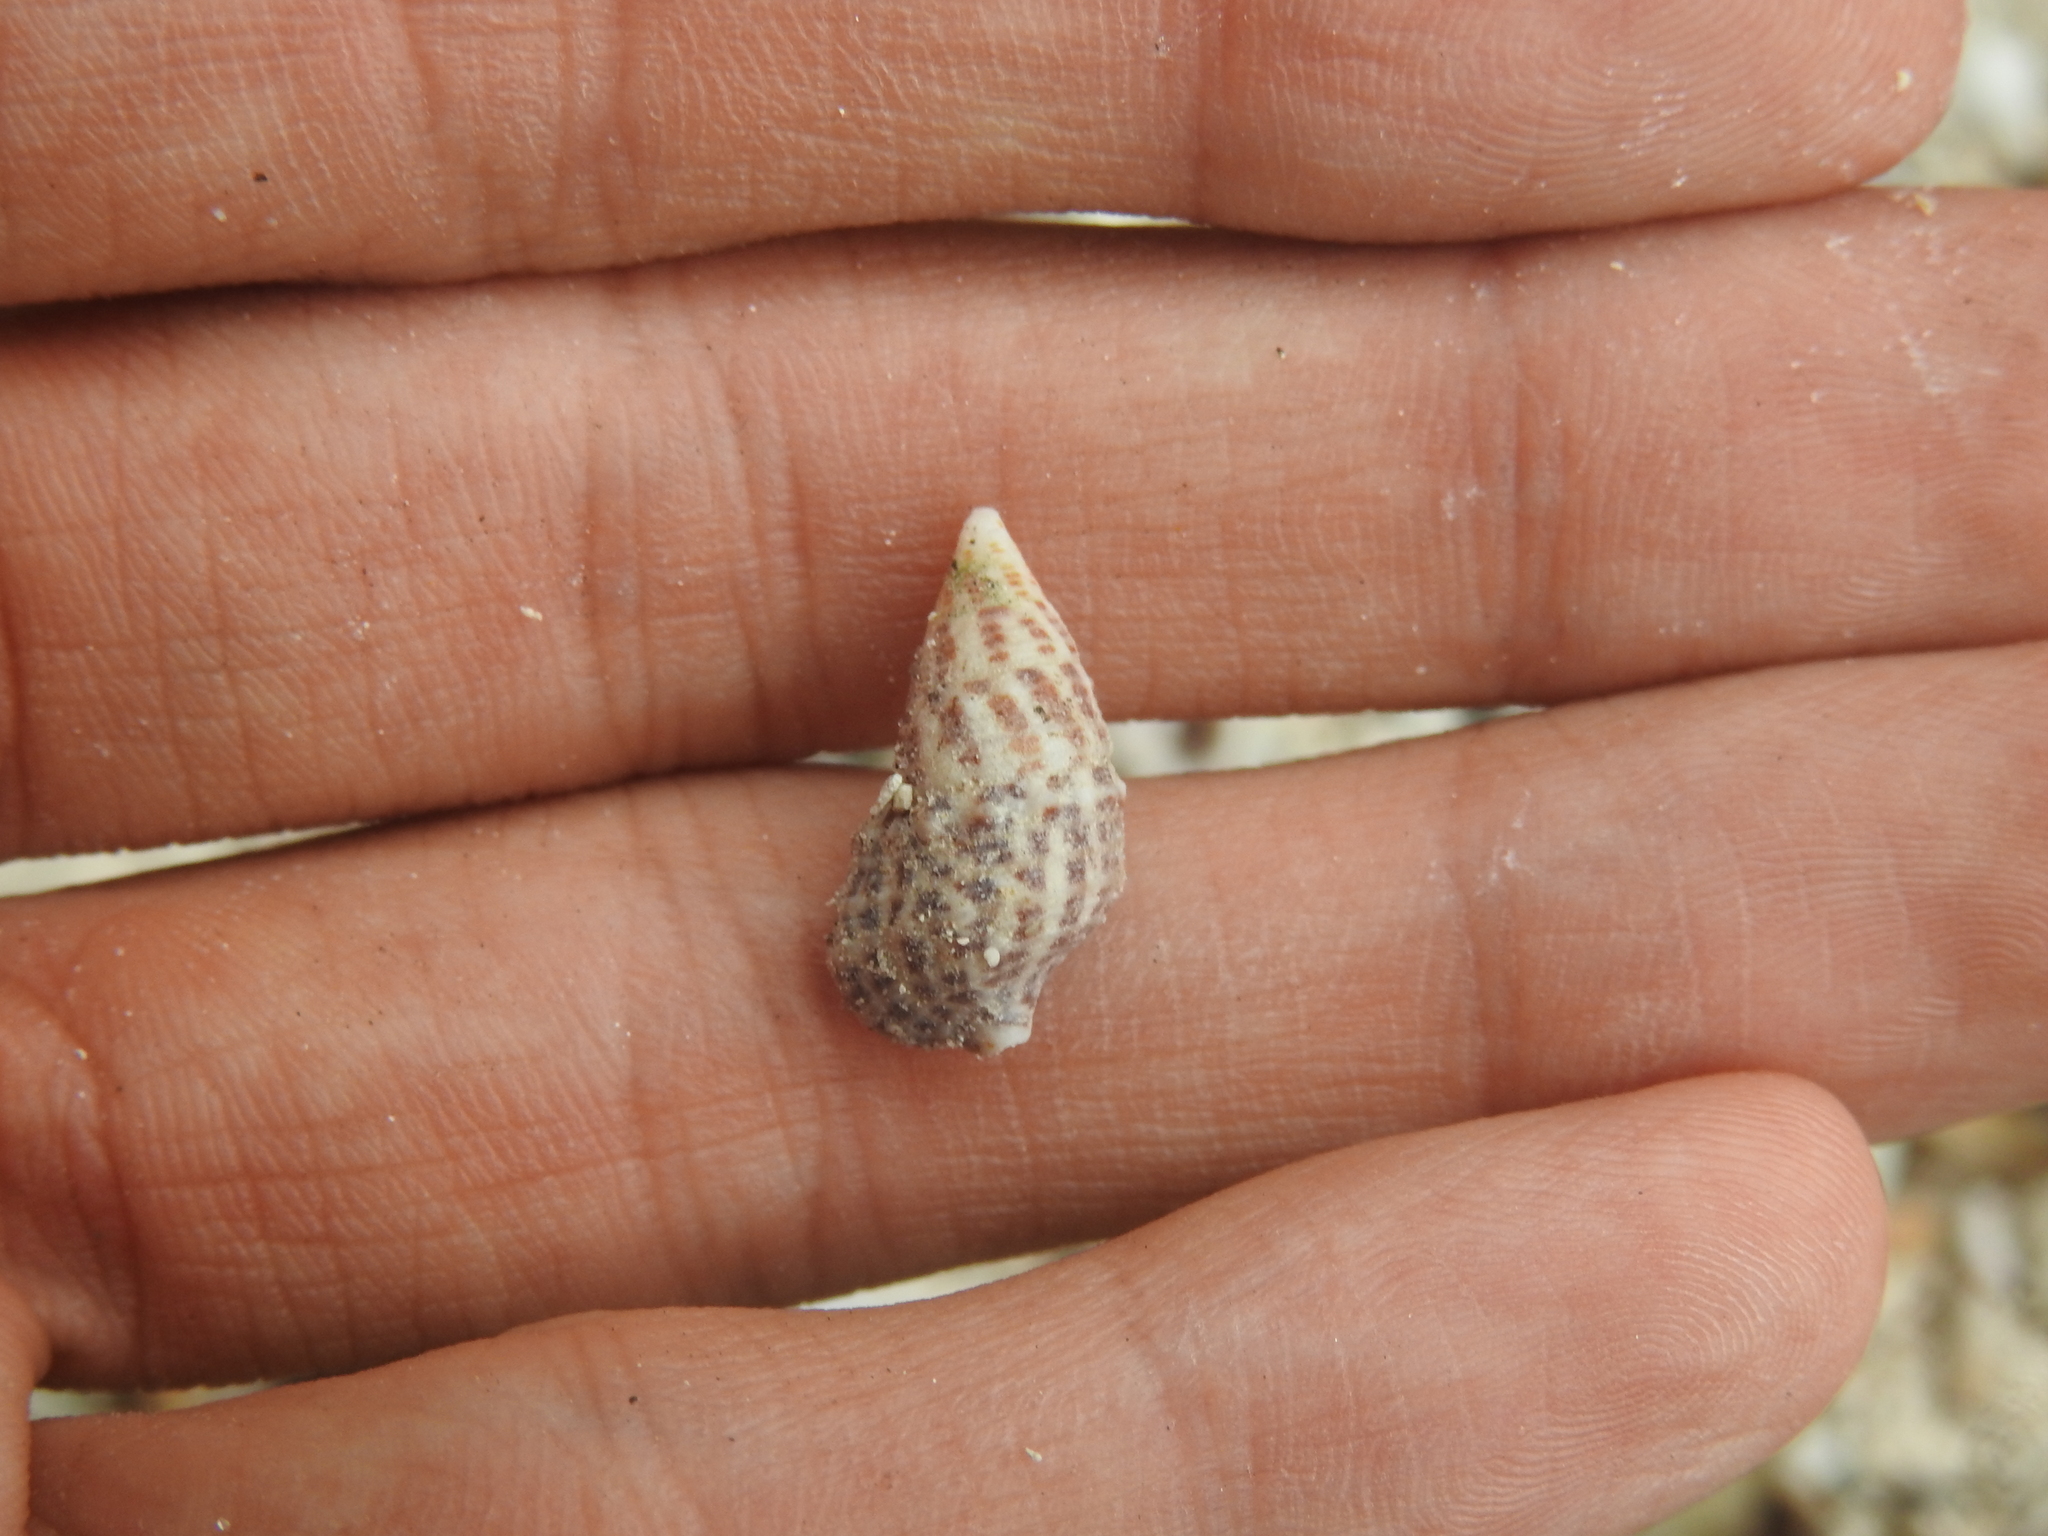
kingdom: Animalia
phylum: Mollusca
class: Gastropoda
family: Cerithiidae
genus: Cerithium
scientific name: Cerithium litteratum
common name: Stocky cerith
